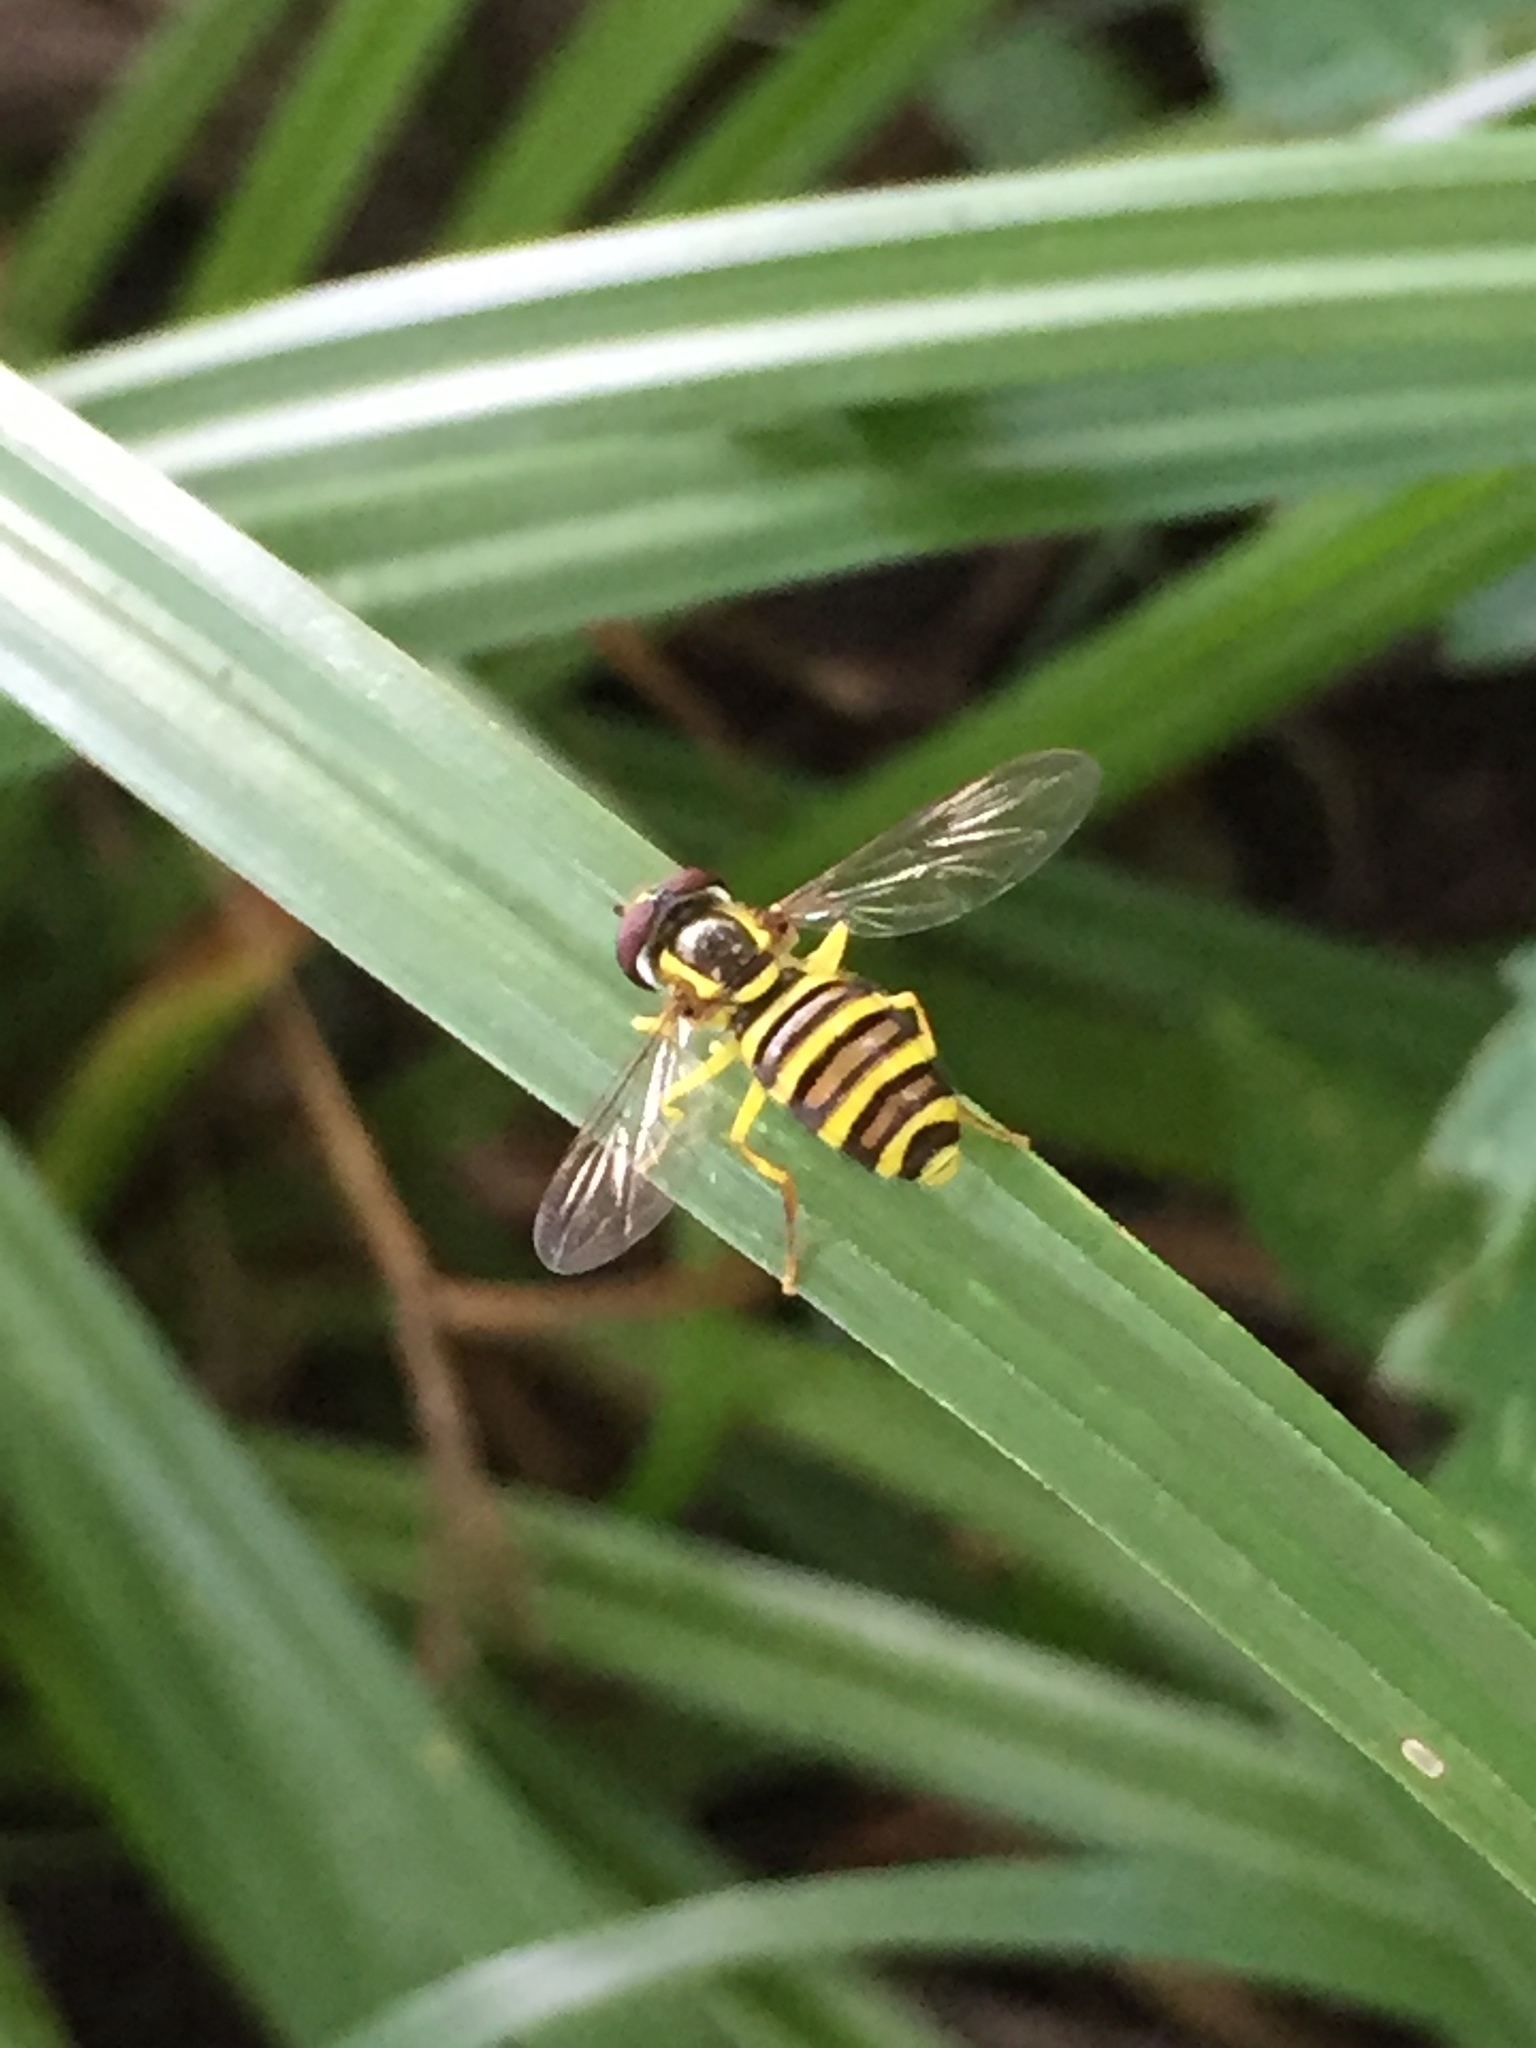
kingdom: Animalia
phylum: Arthropoda
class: Insecta
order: Diptera
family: Syrphidae
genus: Philhelius
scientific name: Philhelius flavipes
